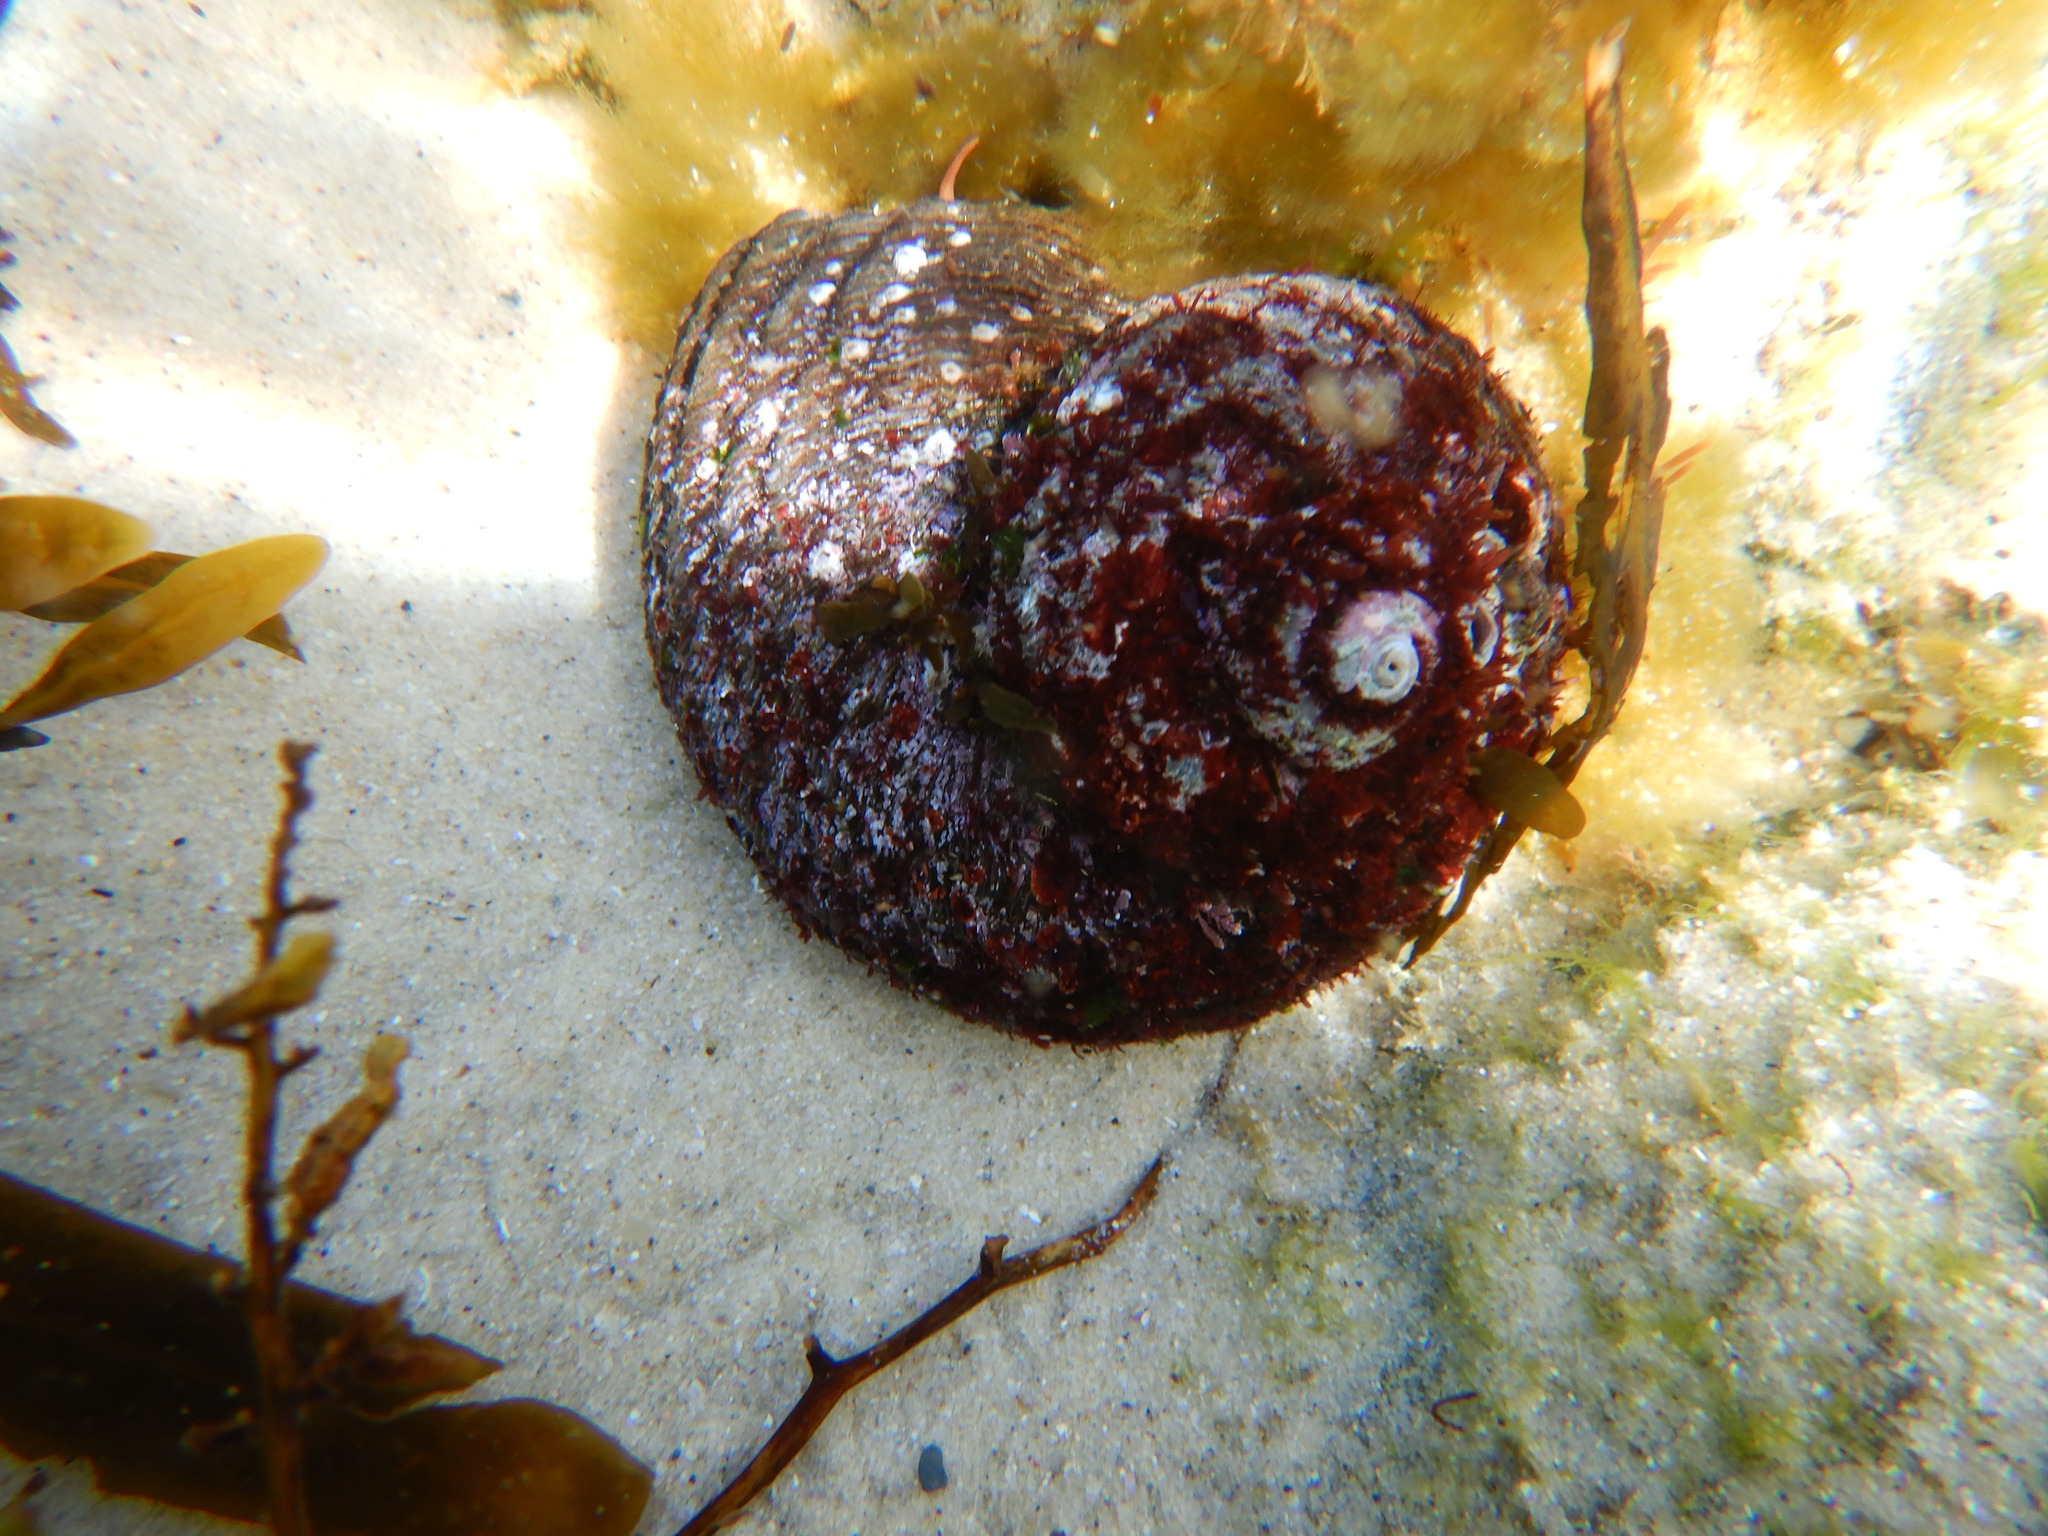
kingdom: Animalia
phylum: Mollusca
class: Gastropoda
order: Trochida
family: Turbinidae
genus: Lunella
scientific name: Lunella torquata
